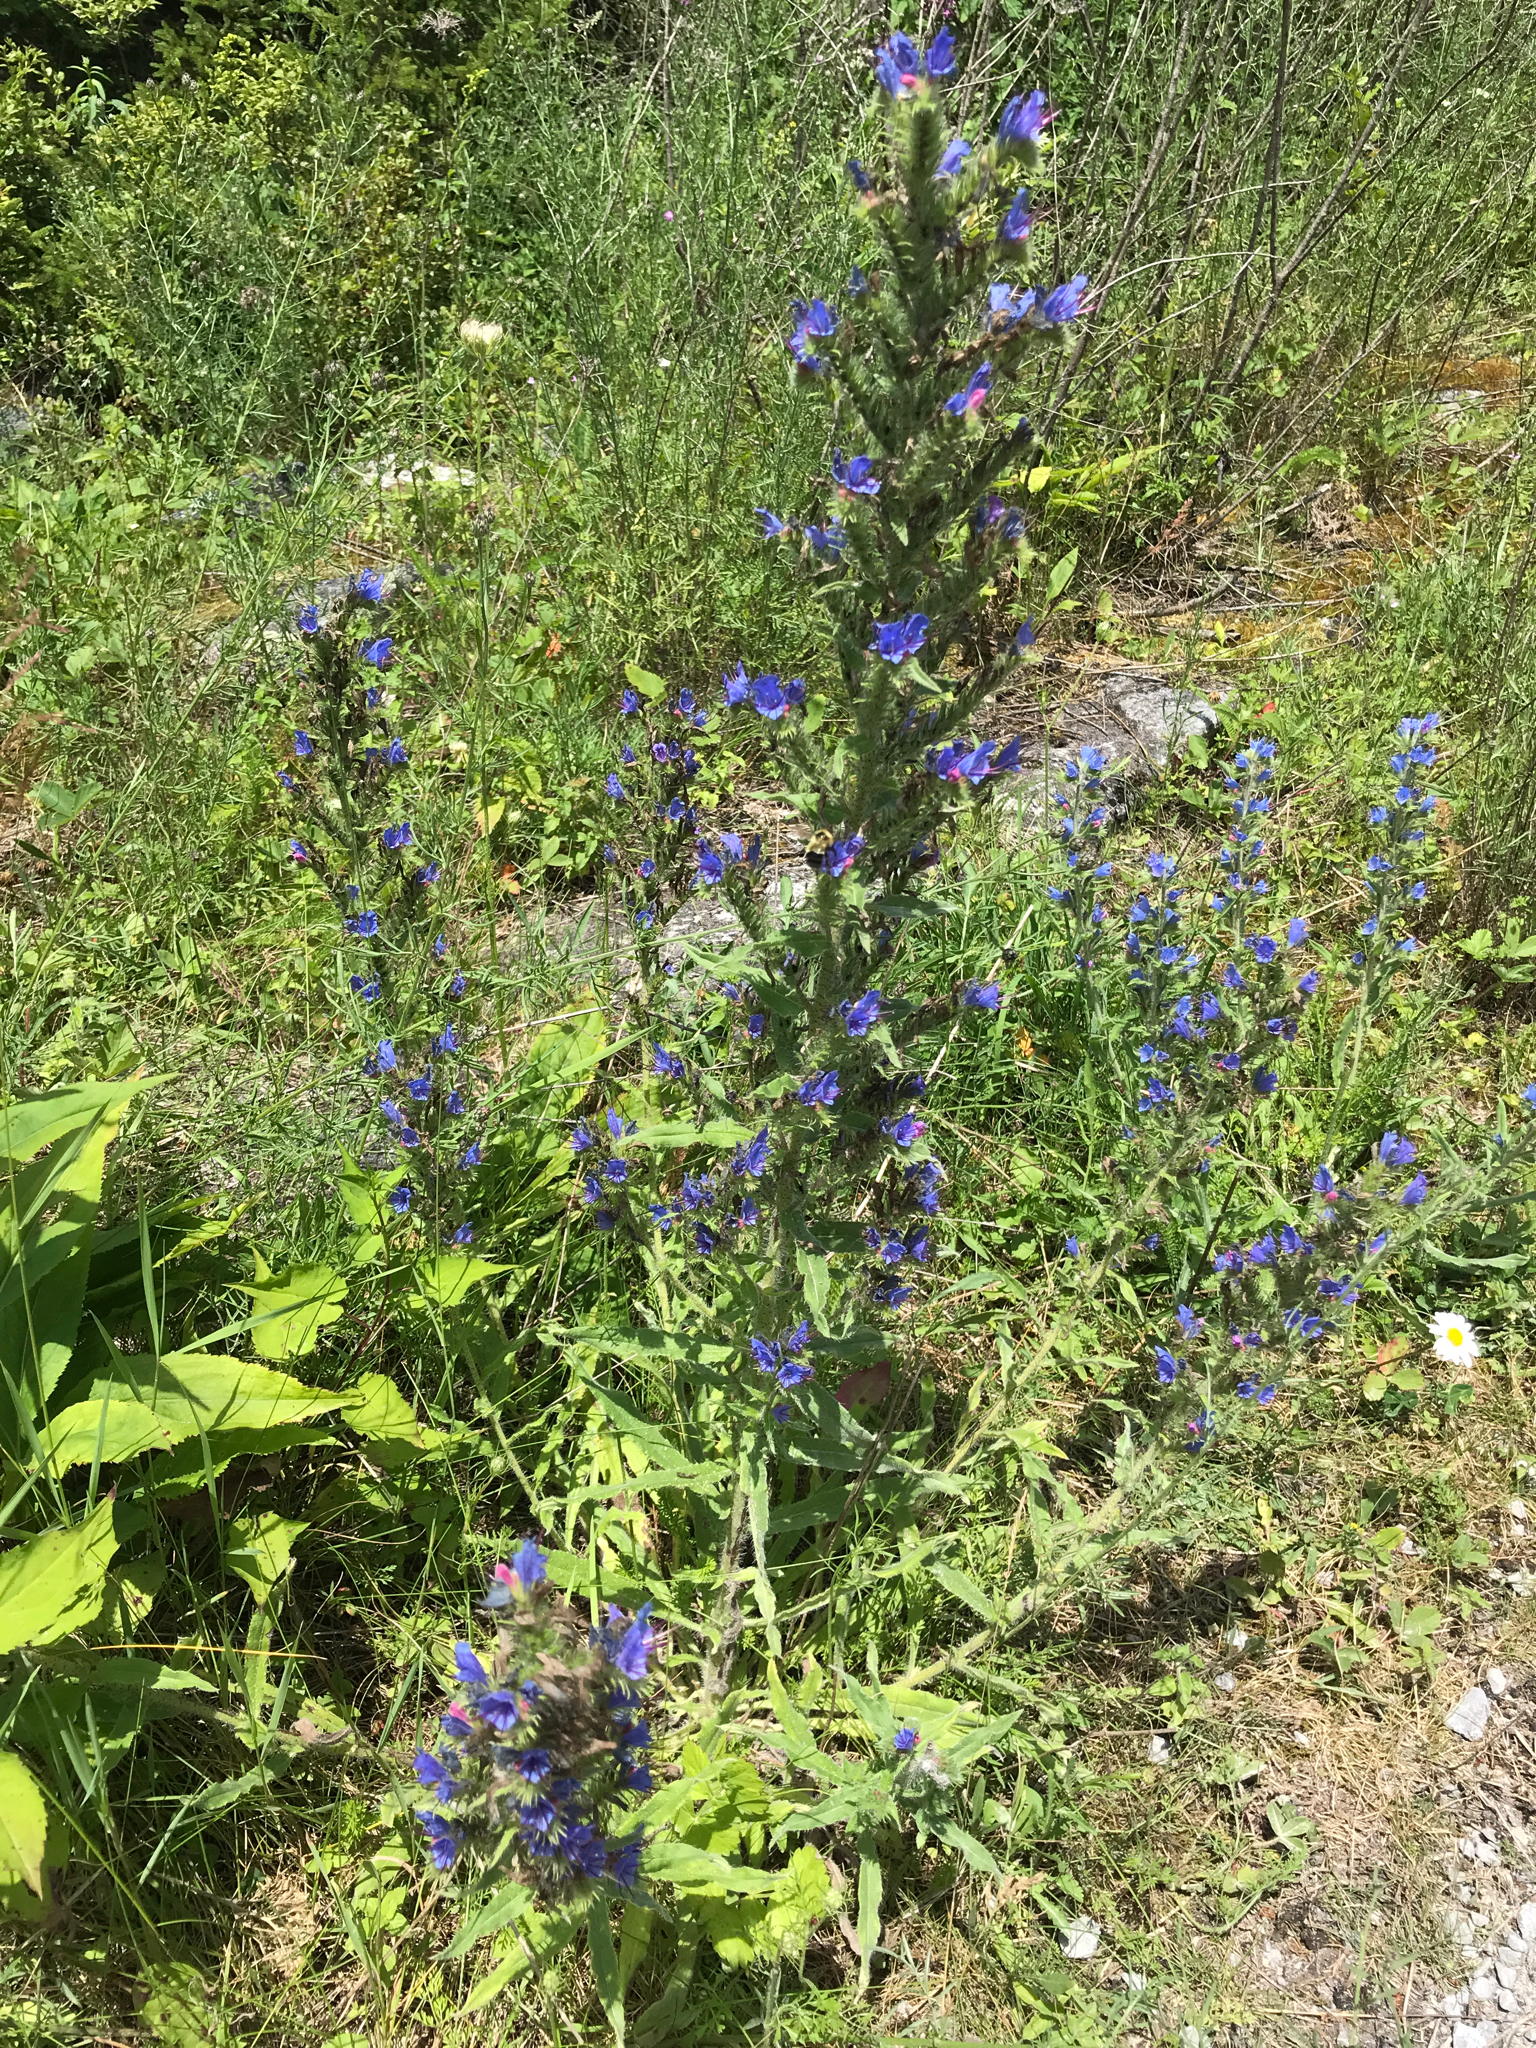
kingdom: Plantae
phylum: Tracheophyta
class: Magnoliopsida
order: Boraginales
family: Boraginaceae
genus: Echium
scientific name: Echium vulgare
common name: Common viper's bugloss
